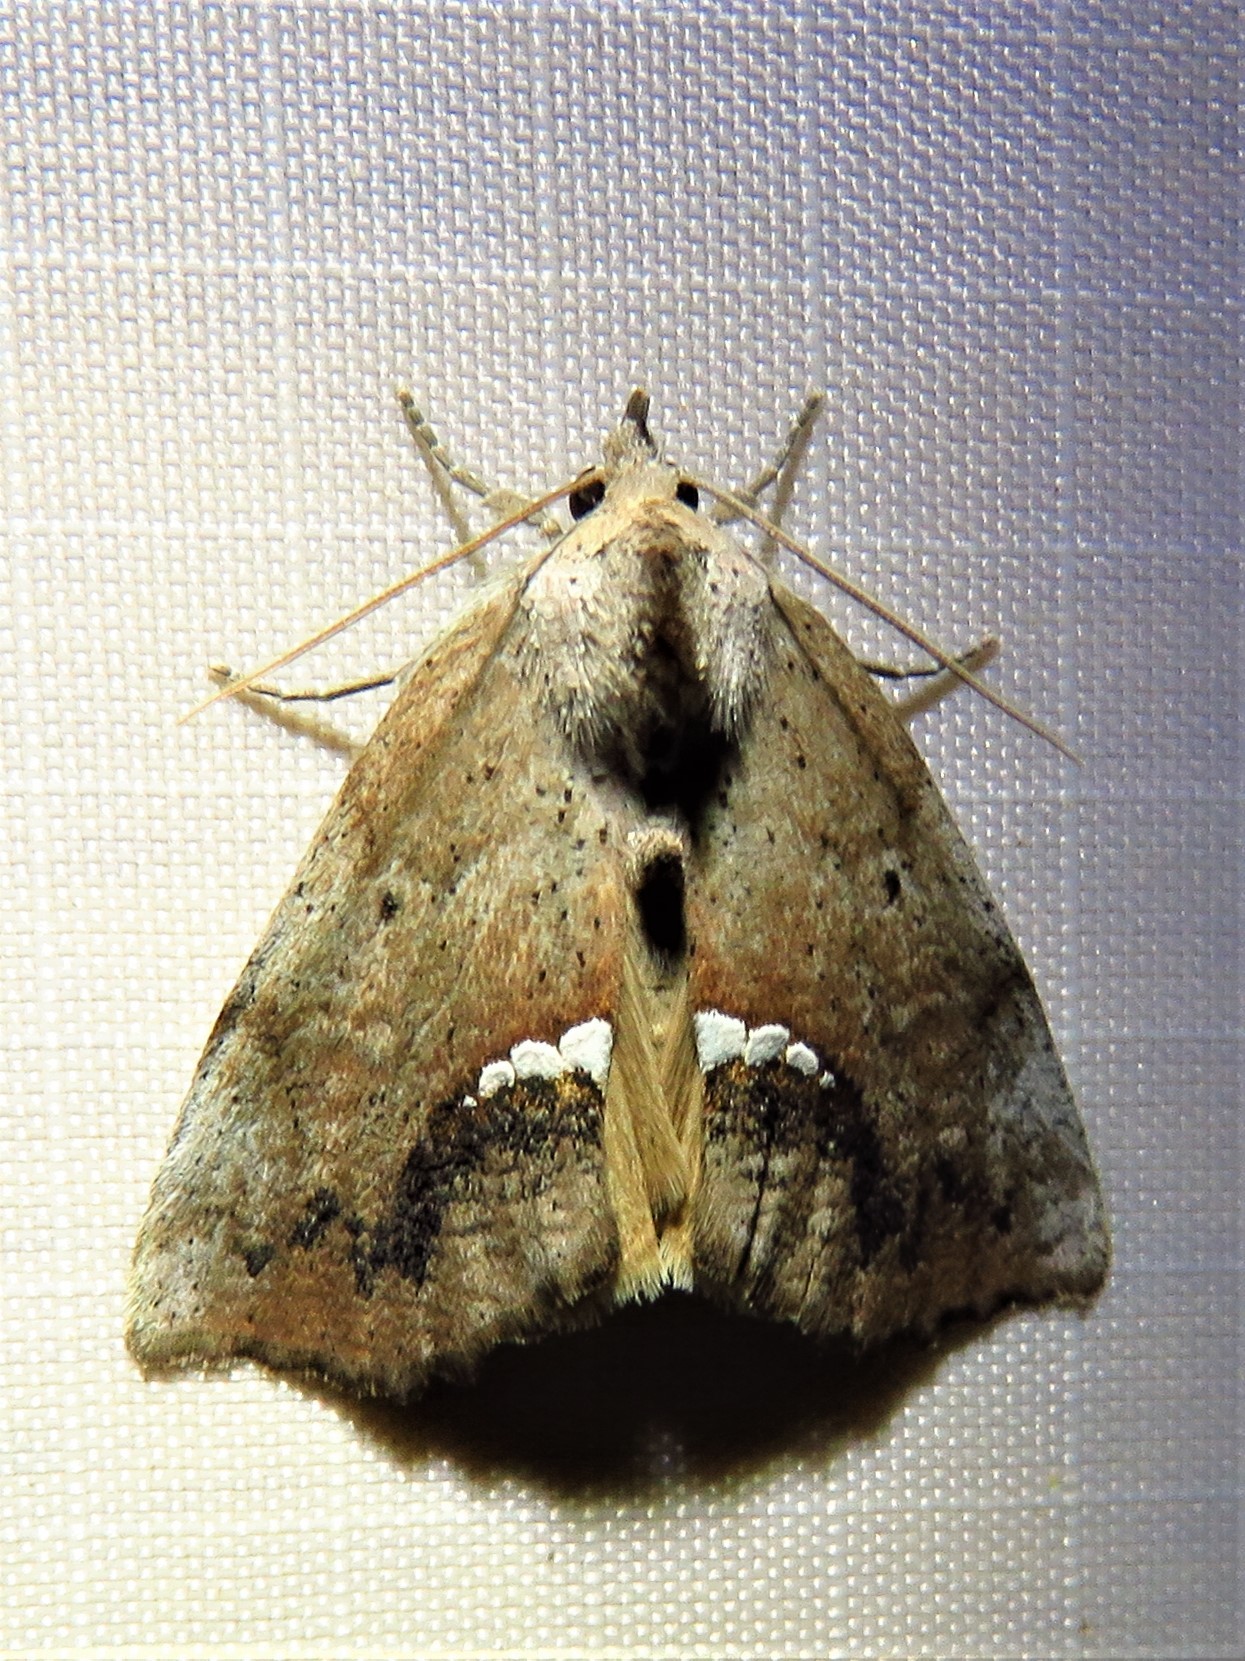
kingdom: Animalia
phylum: Arthropoda
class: Insecta
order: Lepidoptera
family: Erebidae
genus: Hypsoropha
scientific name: Hypsoropha hormos
